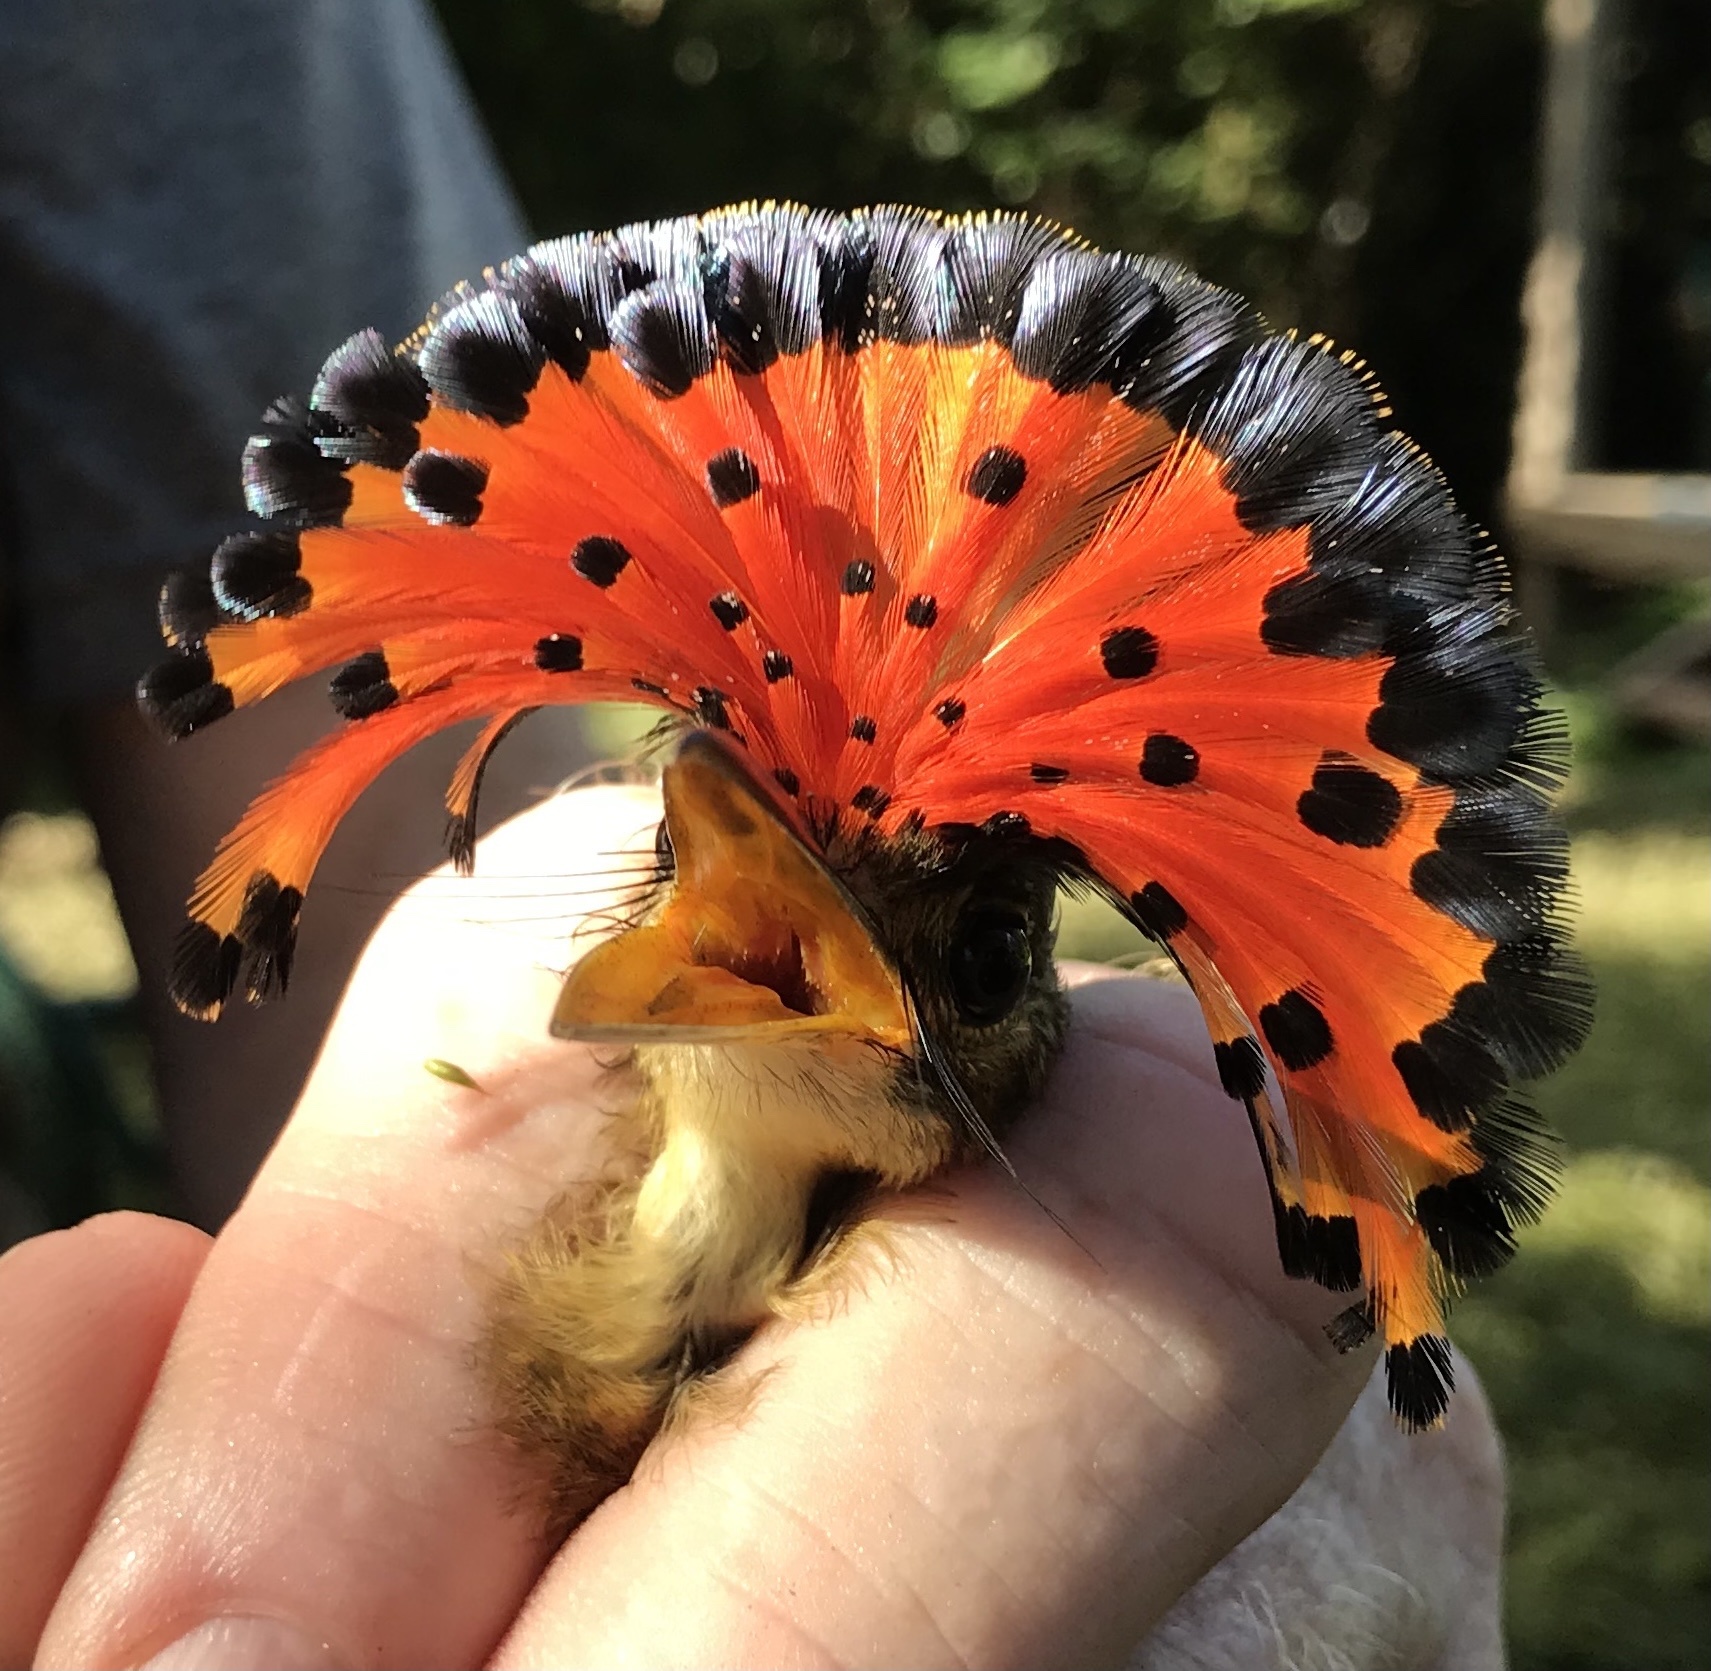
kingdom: Animalia
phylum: Chordata
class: Aves
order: Passeriformes
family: Tyrannidae
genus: Onychorhynchus
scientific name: Onychorhynchus coronatus
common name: Royal flycatcher
